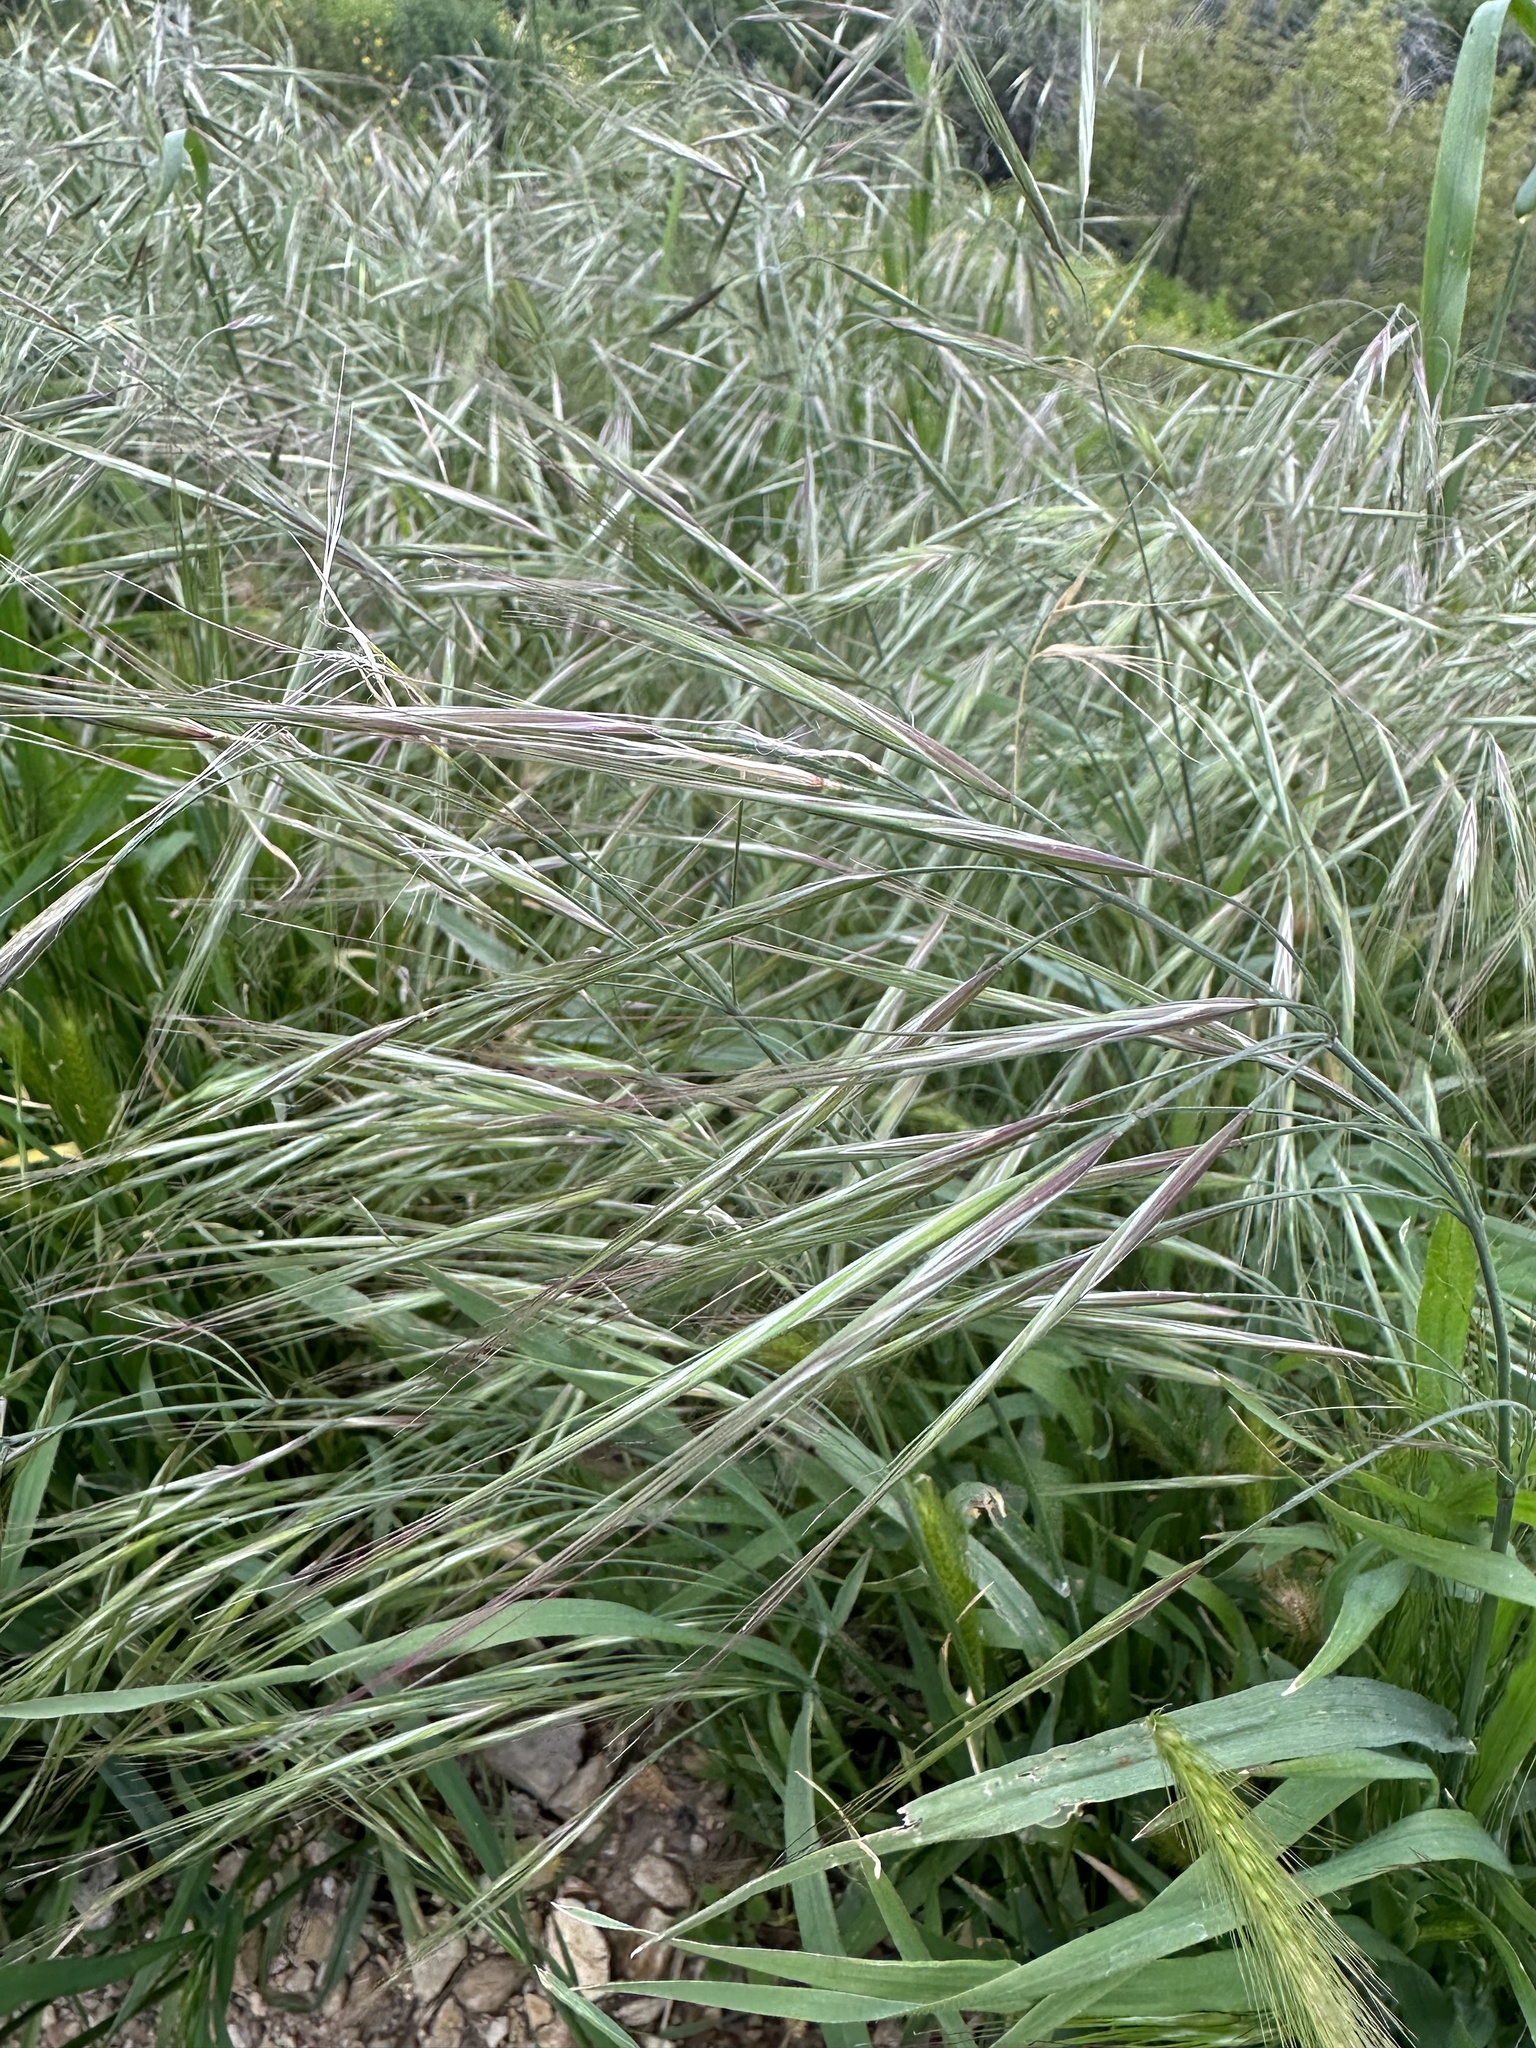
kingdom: Plantae
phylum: Tracheophyta
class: Liliopsida
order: Poales
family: Poaceae
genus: Bromus
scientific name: Bromus diandrus
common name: Ripgut brome
